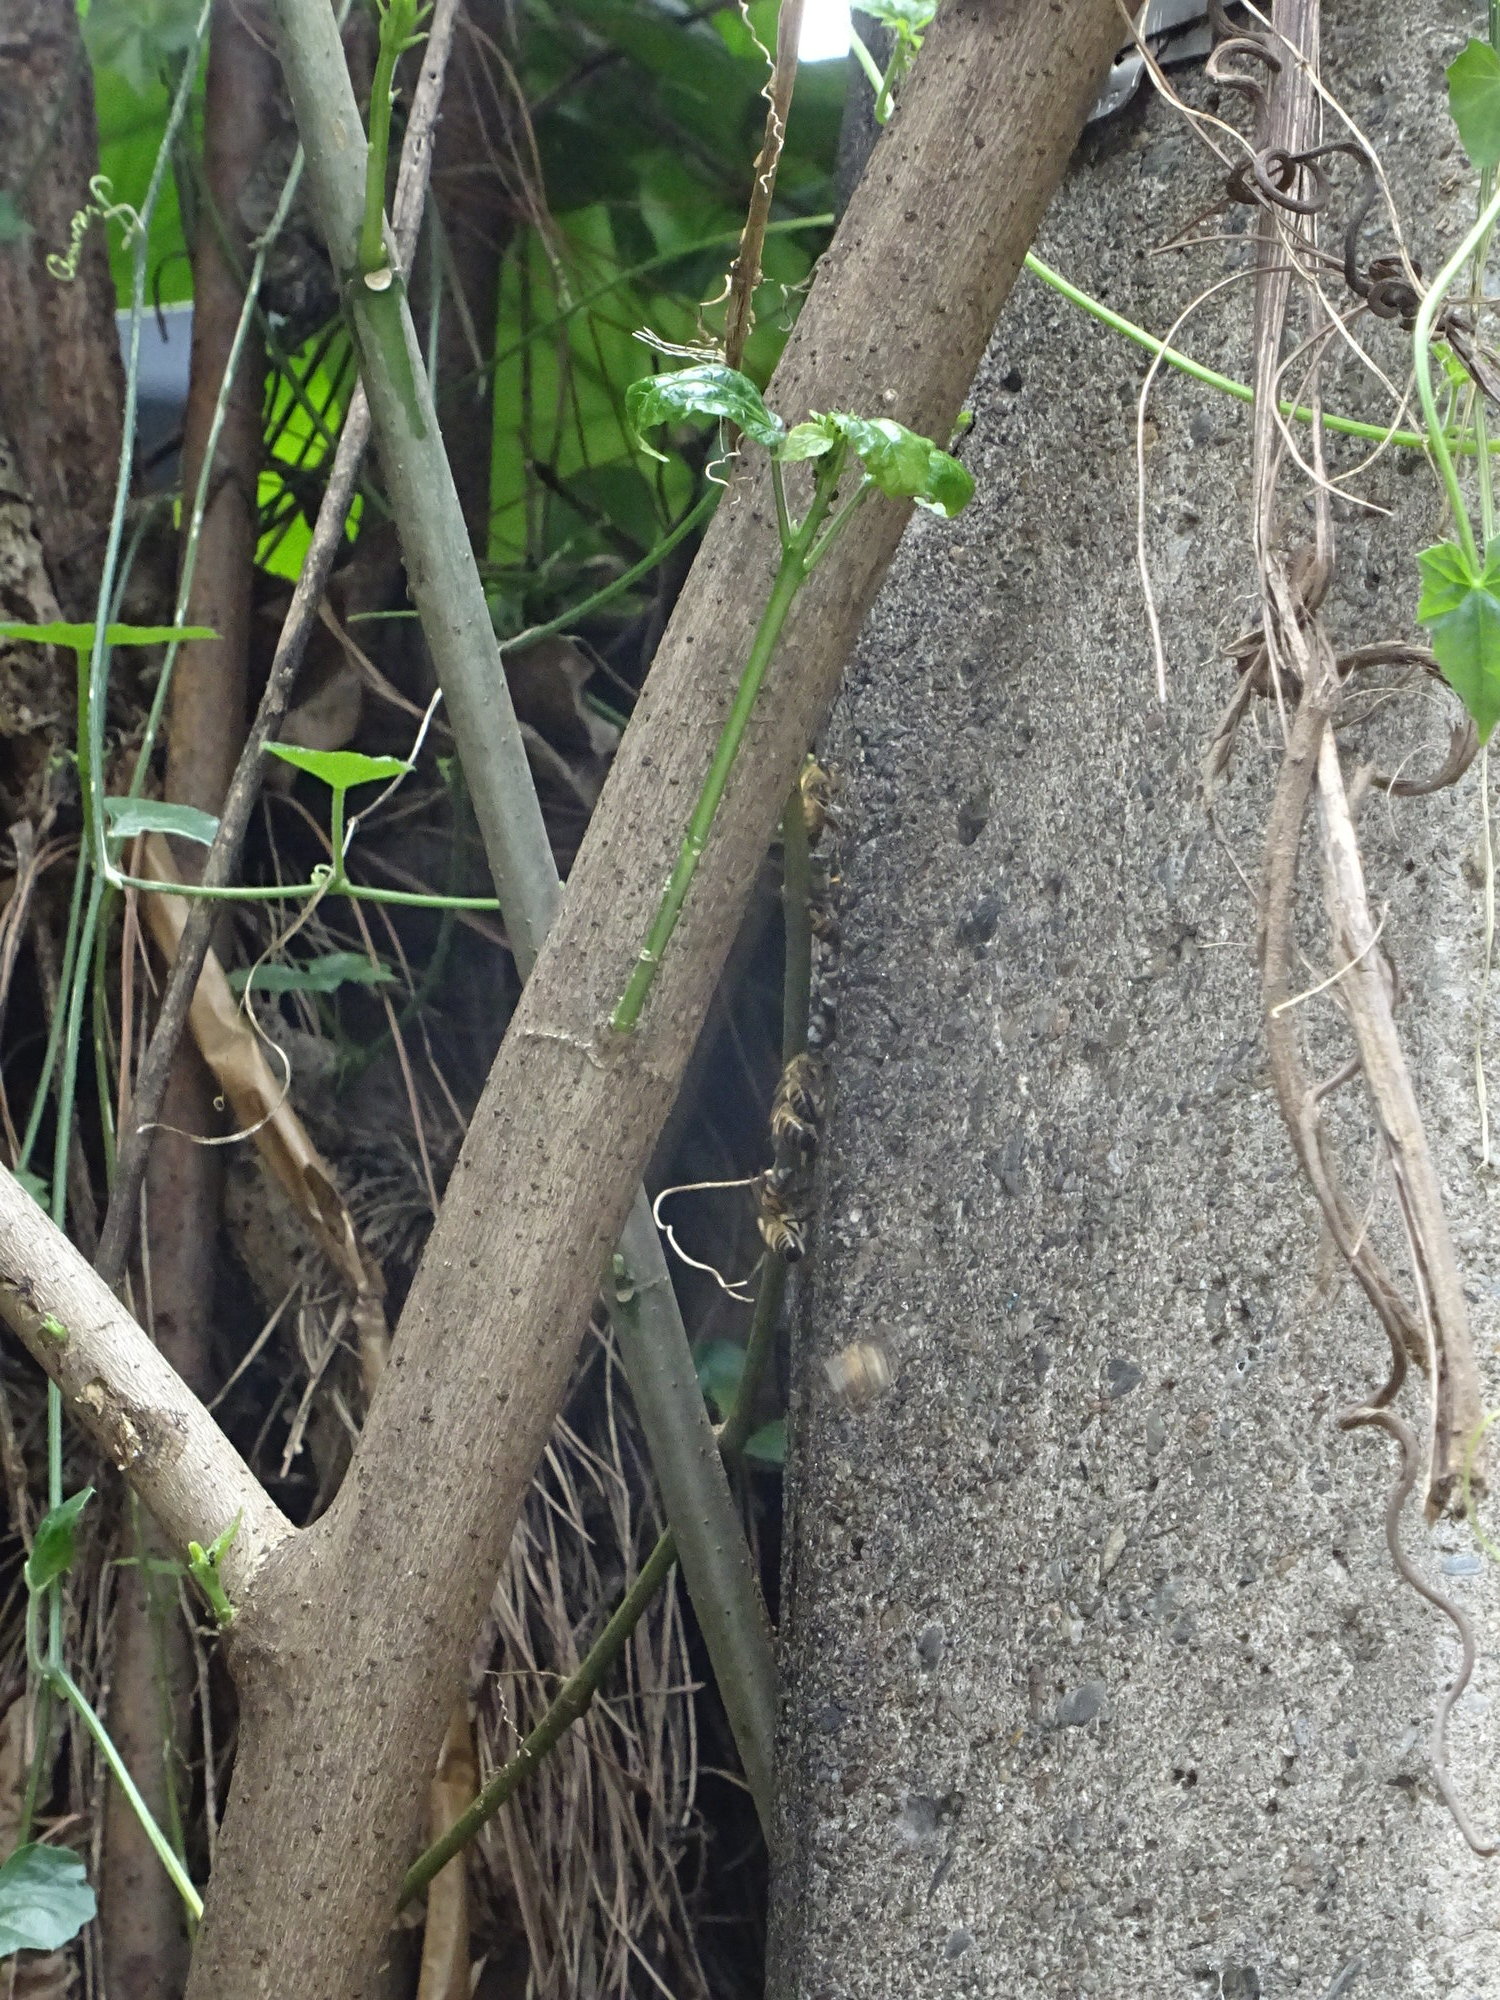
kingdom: Animalia
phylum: Arthropoda
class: Insecta
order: Hymenoptera
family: Apidae
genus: Apis
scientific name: Apis mellifera
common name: Honey bee
